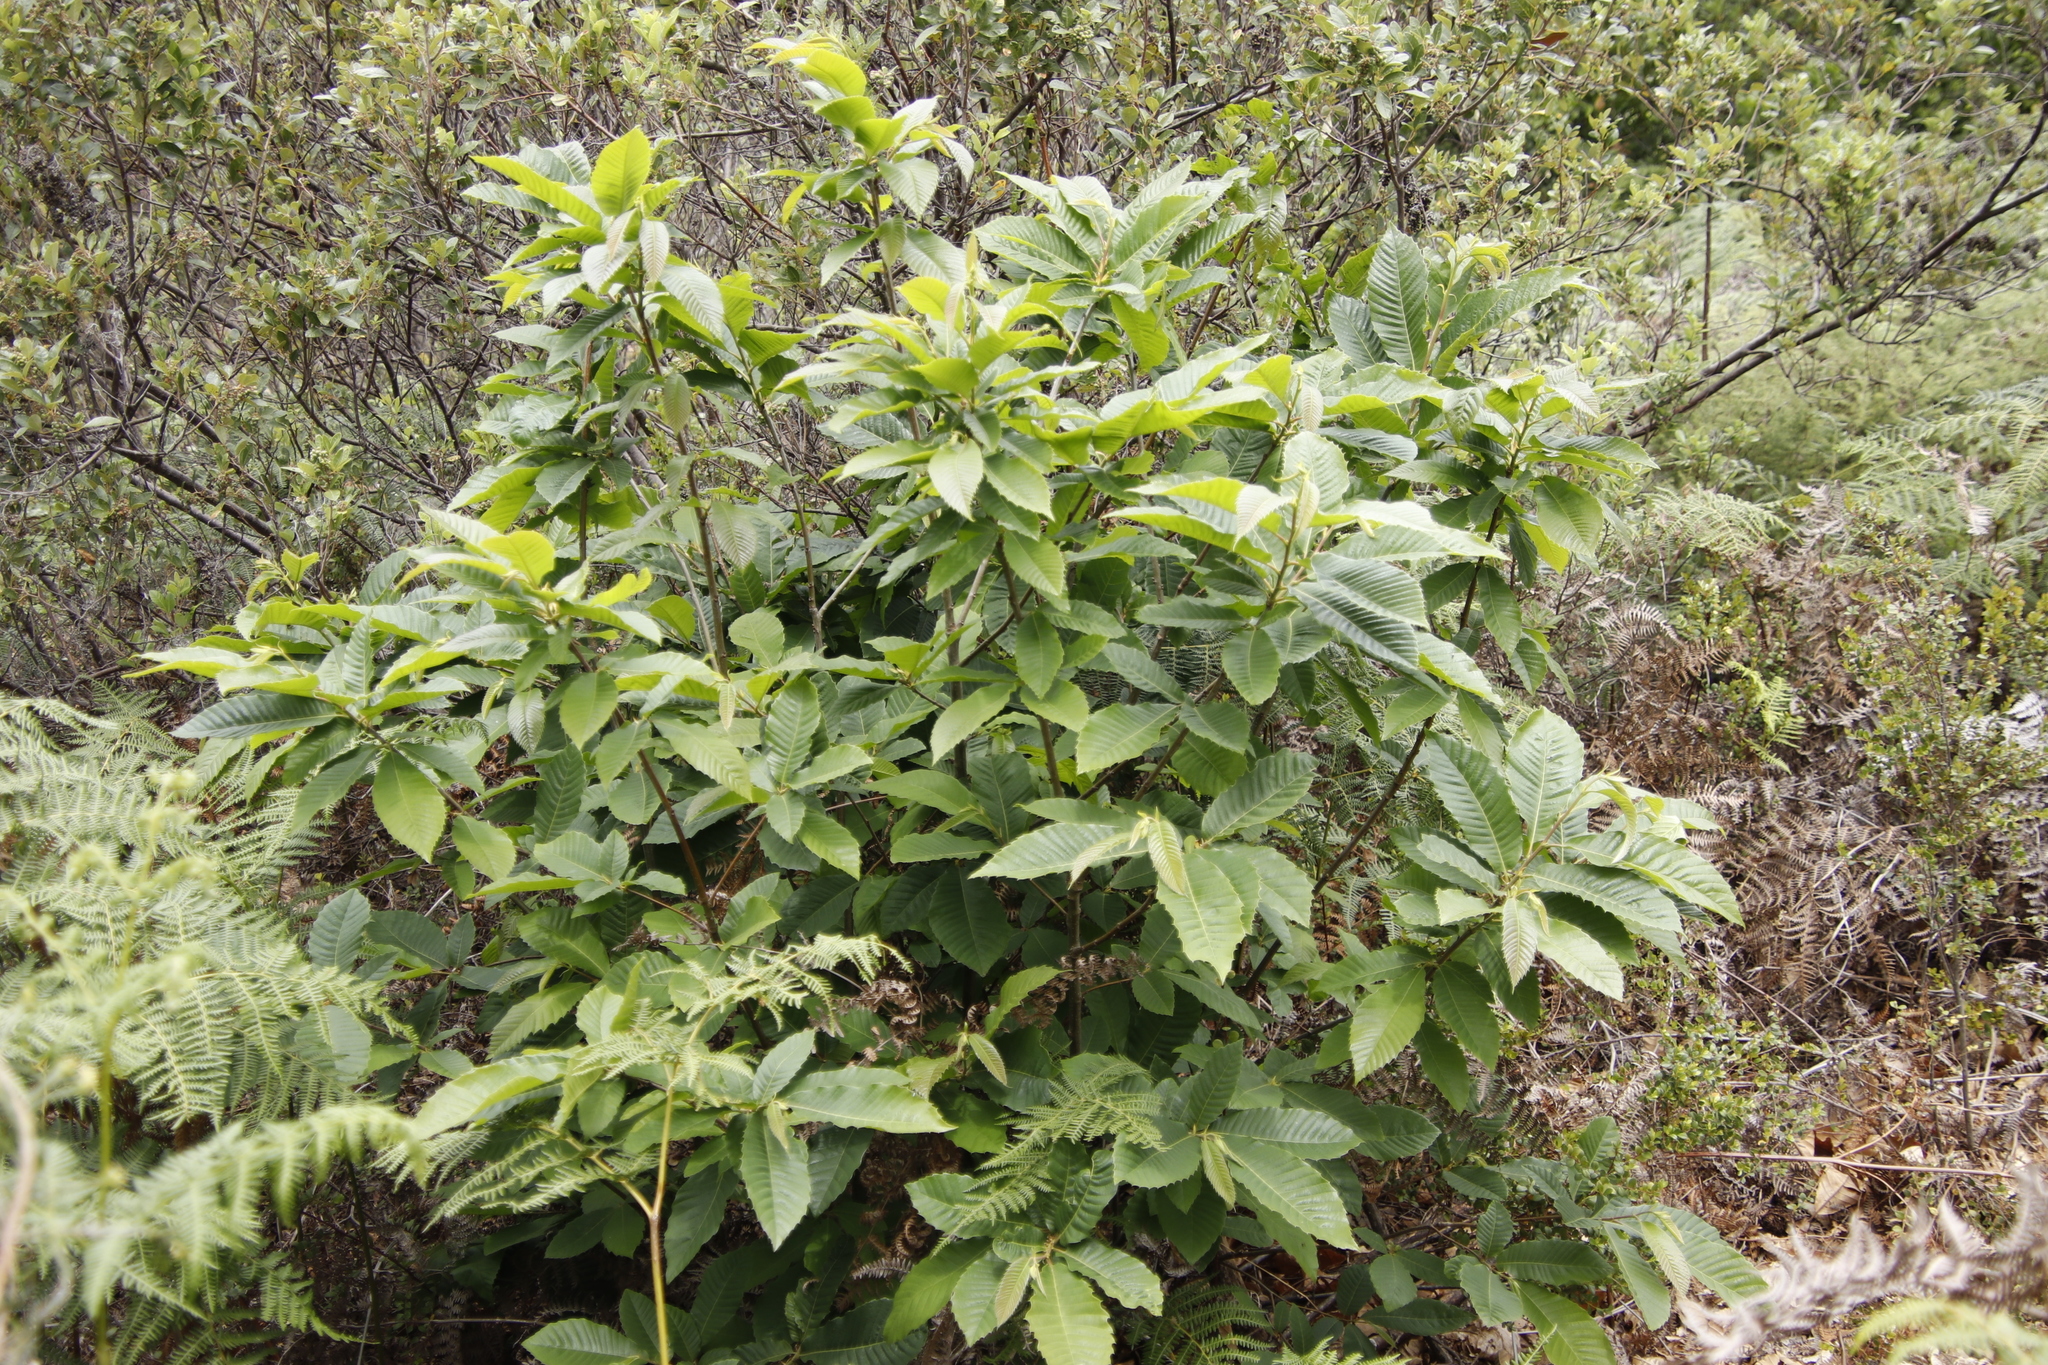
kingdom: Plantae
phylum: Tracheophyta
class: Magnoliopsida
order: Fagales
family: Fagaceae
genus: Castanea
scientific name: Castanea sativa
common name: Sweet chestnut
